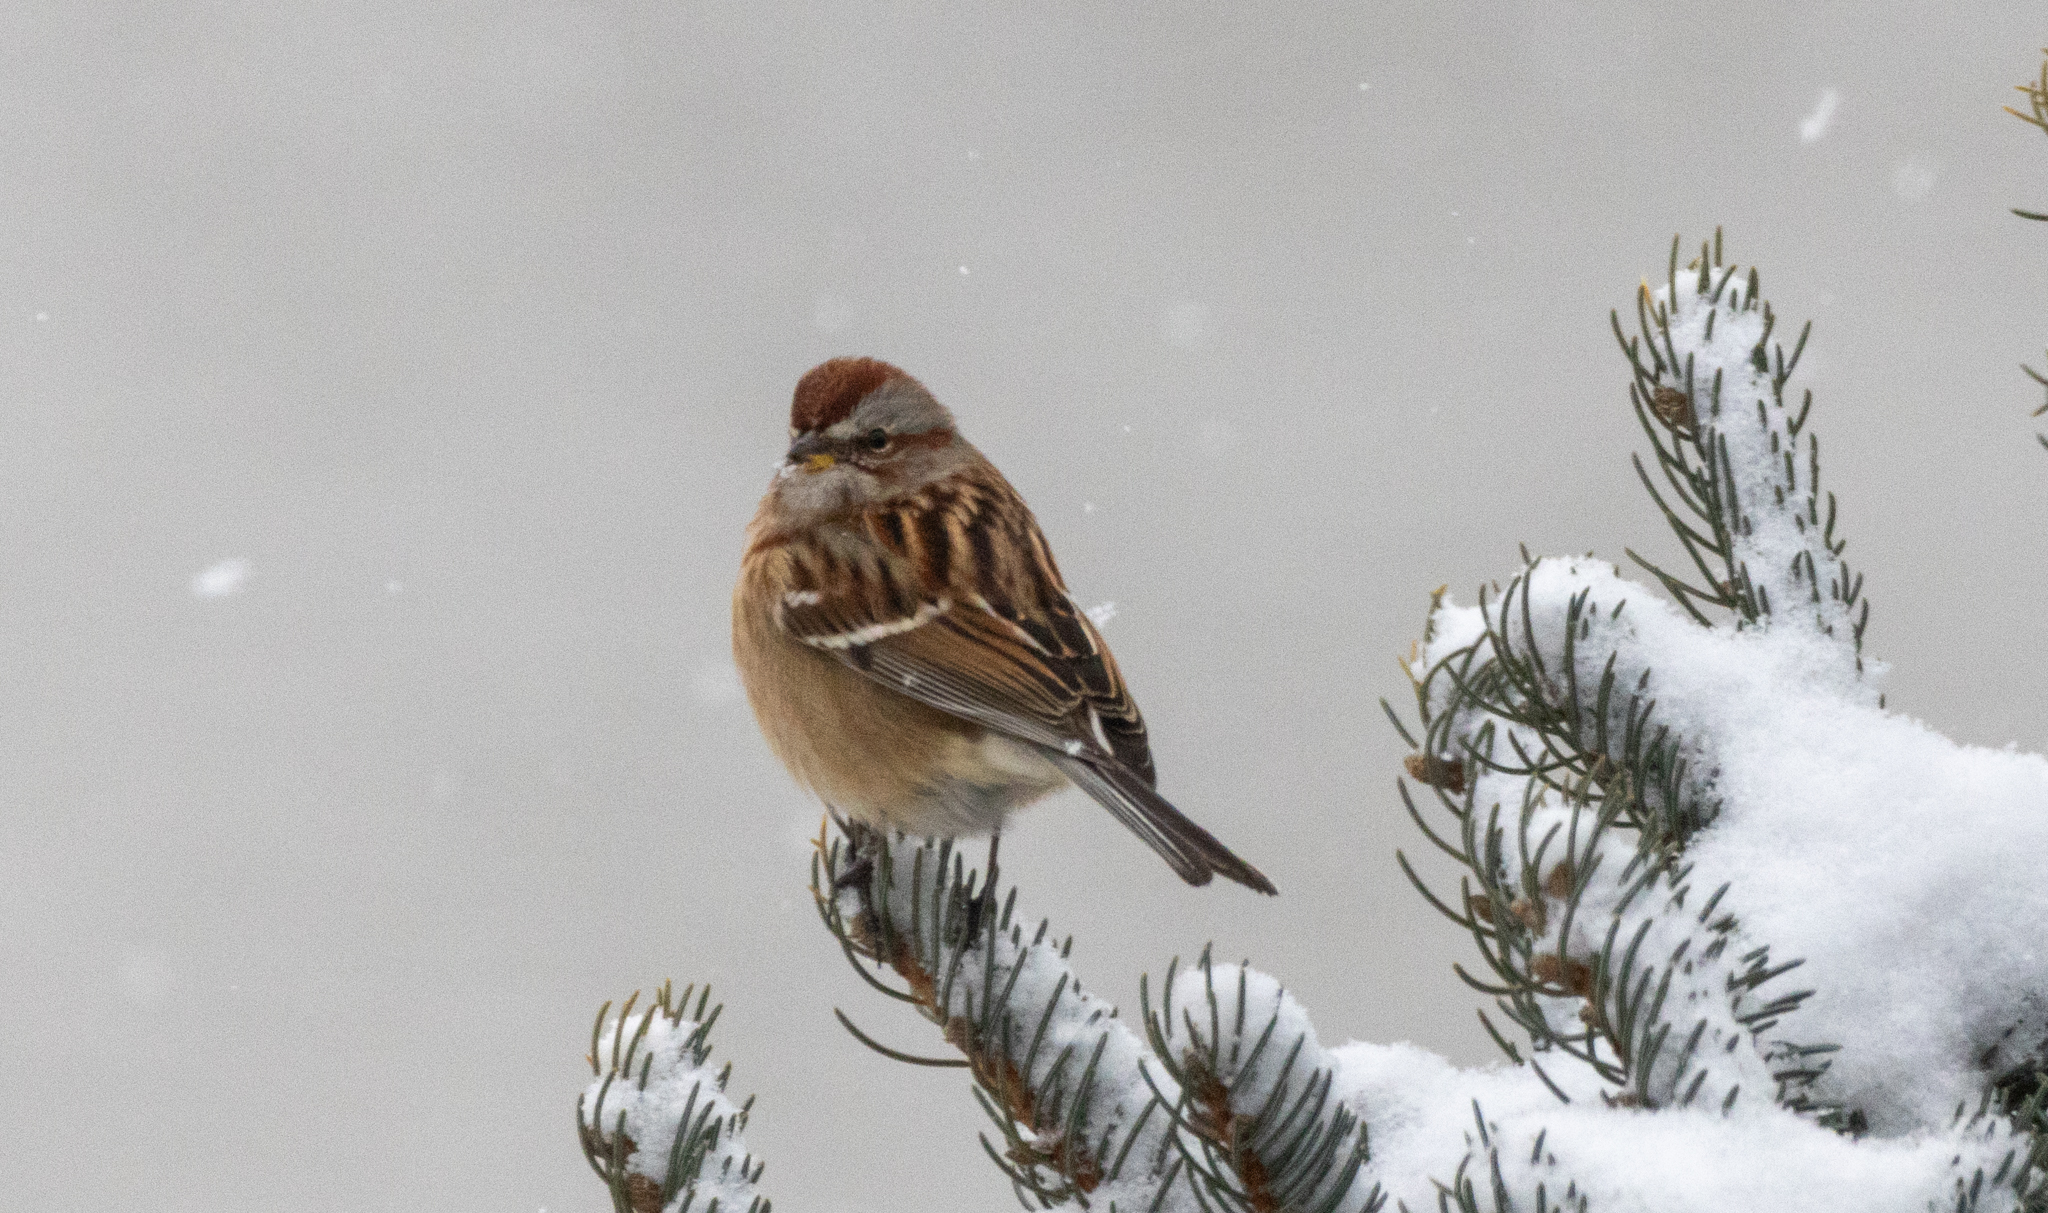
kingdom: Animalia
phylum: Chordata
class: Aves
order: Passeriformes
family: Passerellidae
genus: Spizelloides
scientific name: Spizelloides arborea
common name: American tree sparrow
